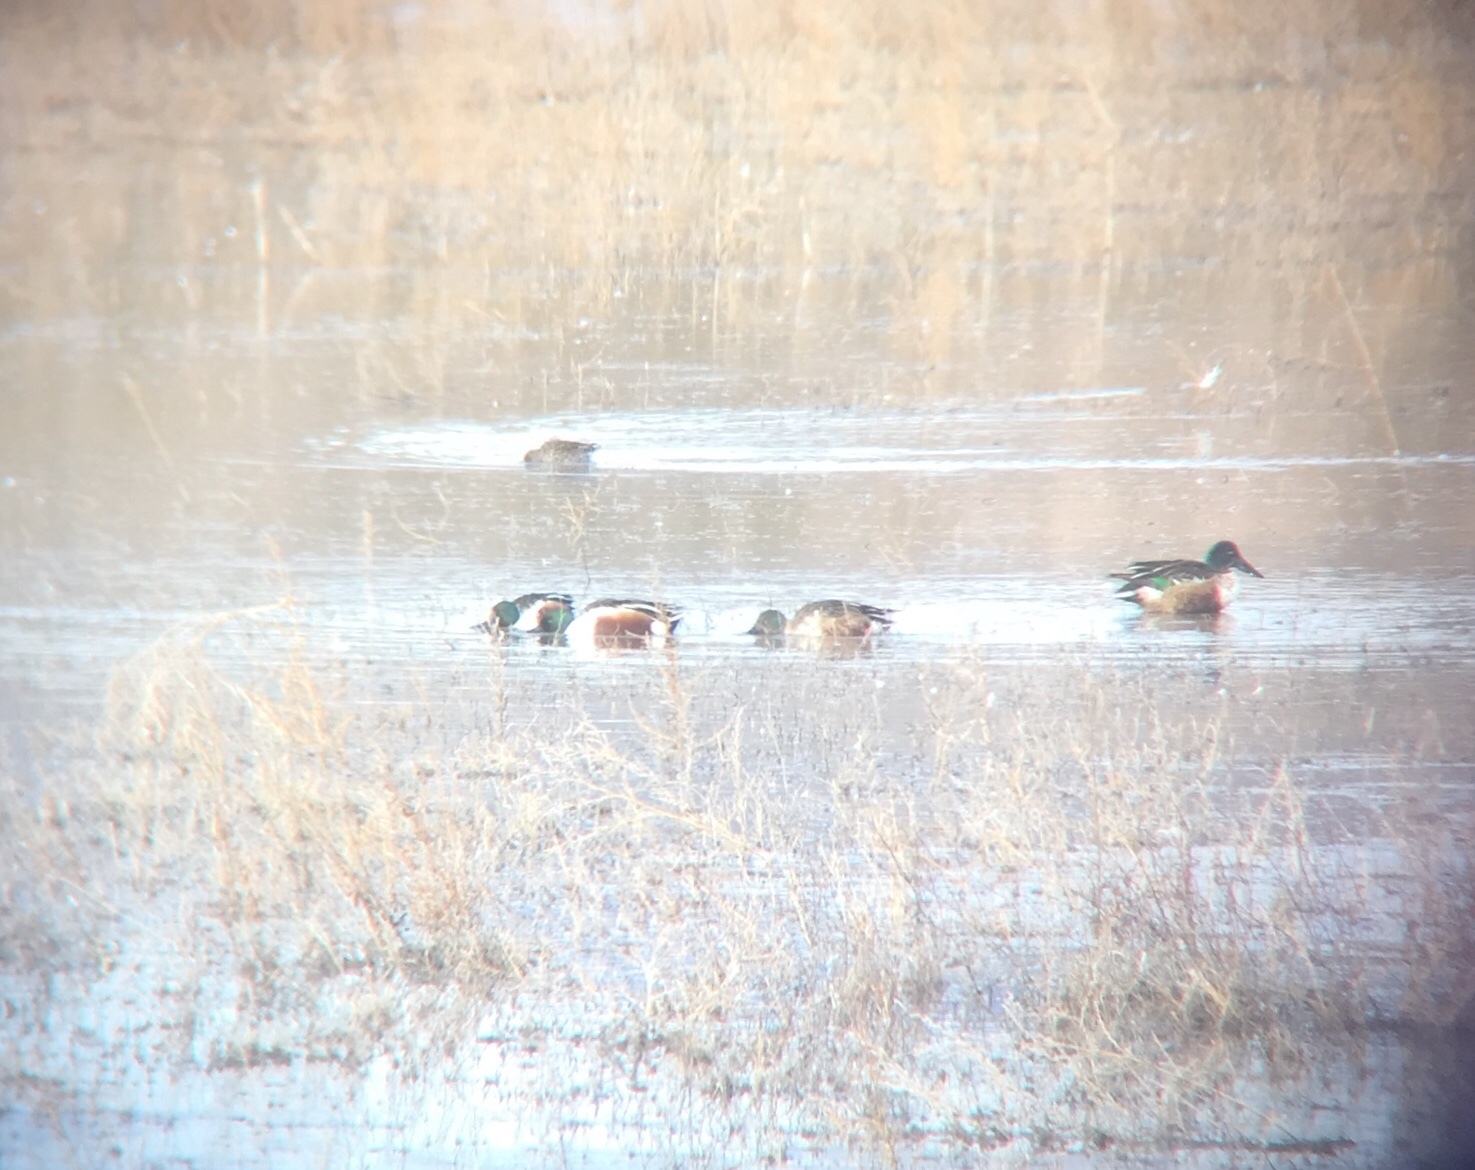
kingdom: Animalia
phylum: Chordata
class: Aves
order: Anseriformes
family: Anatidae
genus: Spatula
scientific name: Spatula clypeata
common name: Northern shoveler
